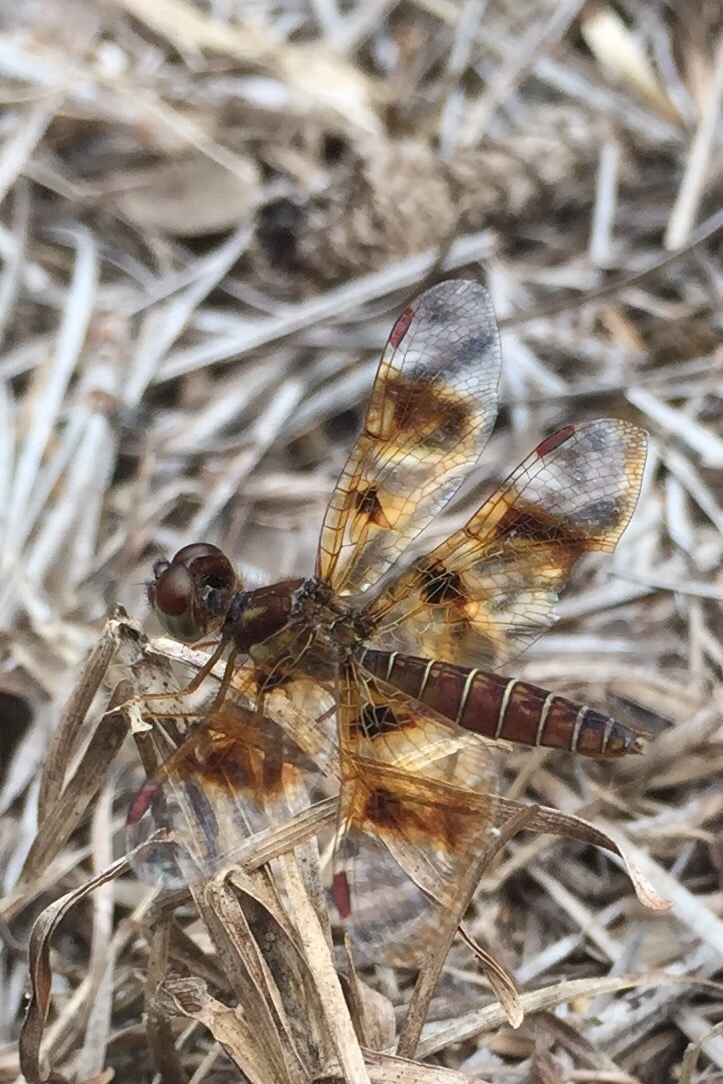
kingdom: Animalia
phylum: Arthropoda
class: Insecta
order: Odonata
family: Libellulidae
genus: Perithemis
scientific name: Perithemis tenera
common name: Eastern amberwing
